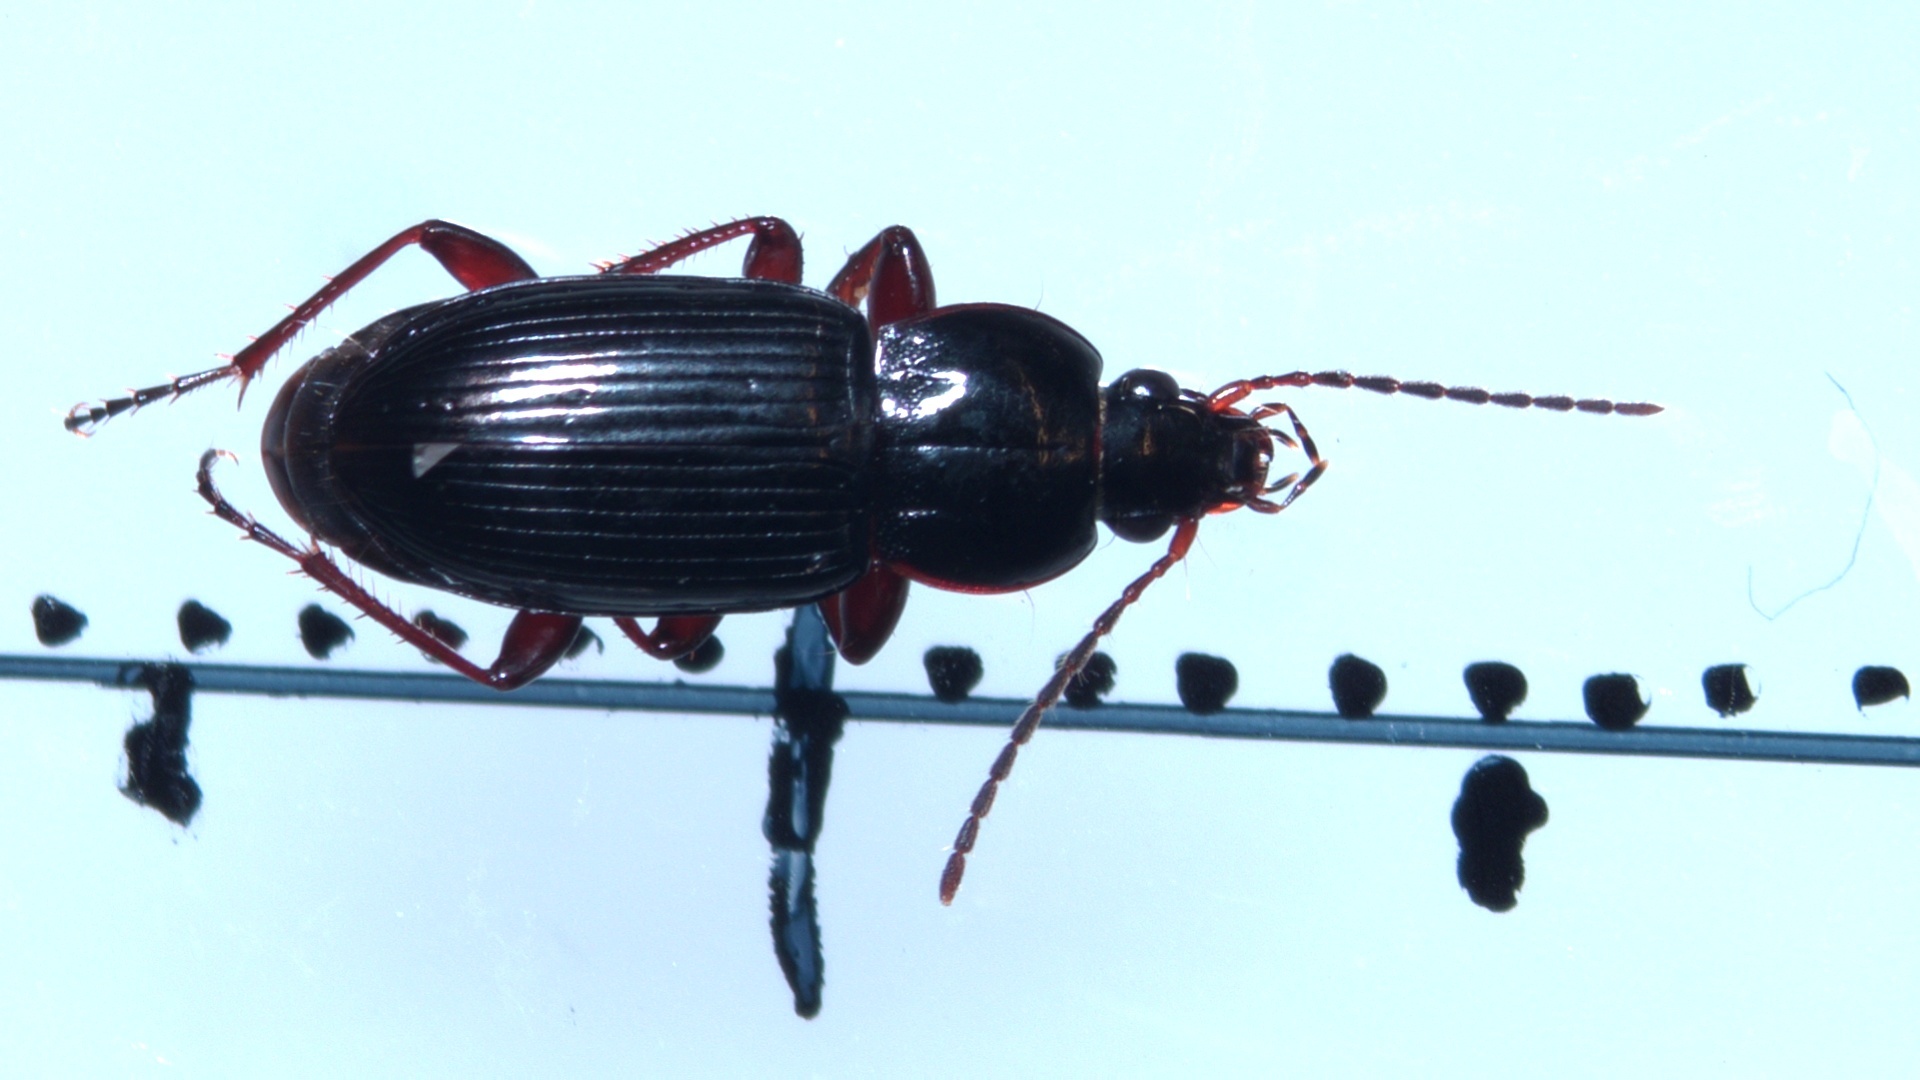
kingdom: Animalia
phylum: Arthropoda
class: Insecta
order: Coleoptera
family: Carabidae
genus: Pterostichus
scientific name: Pterostichus vernalis
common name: Spring harp ground beetle
